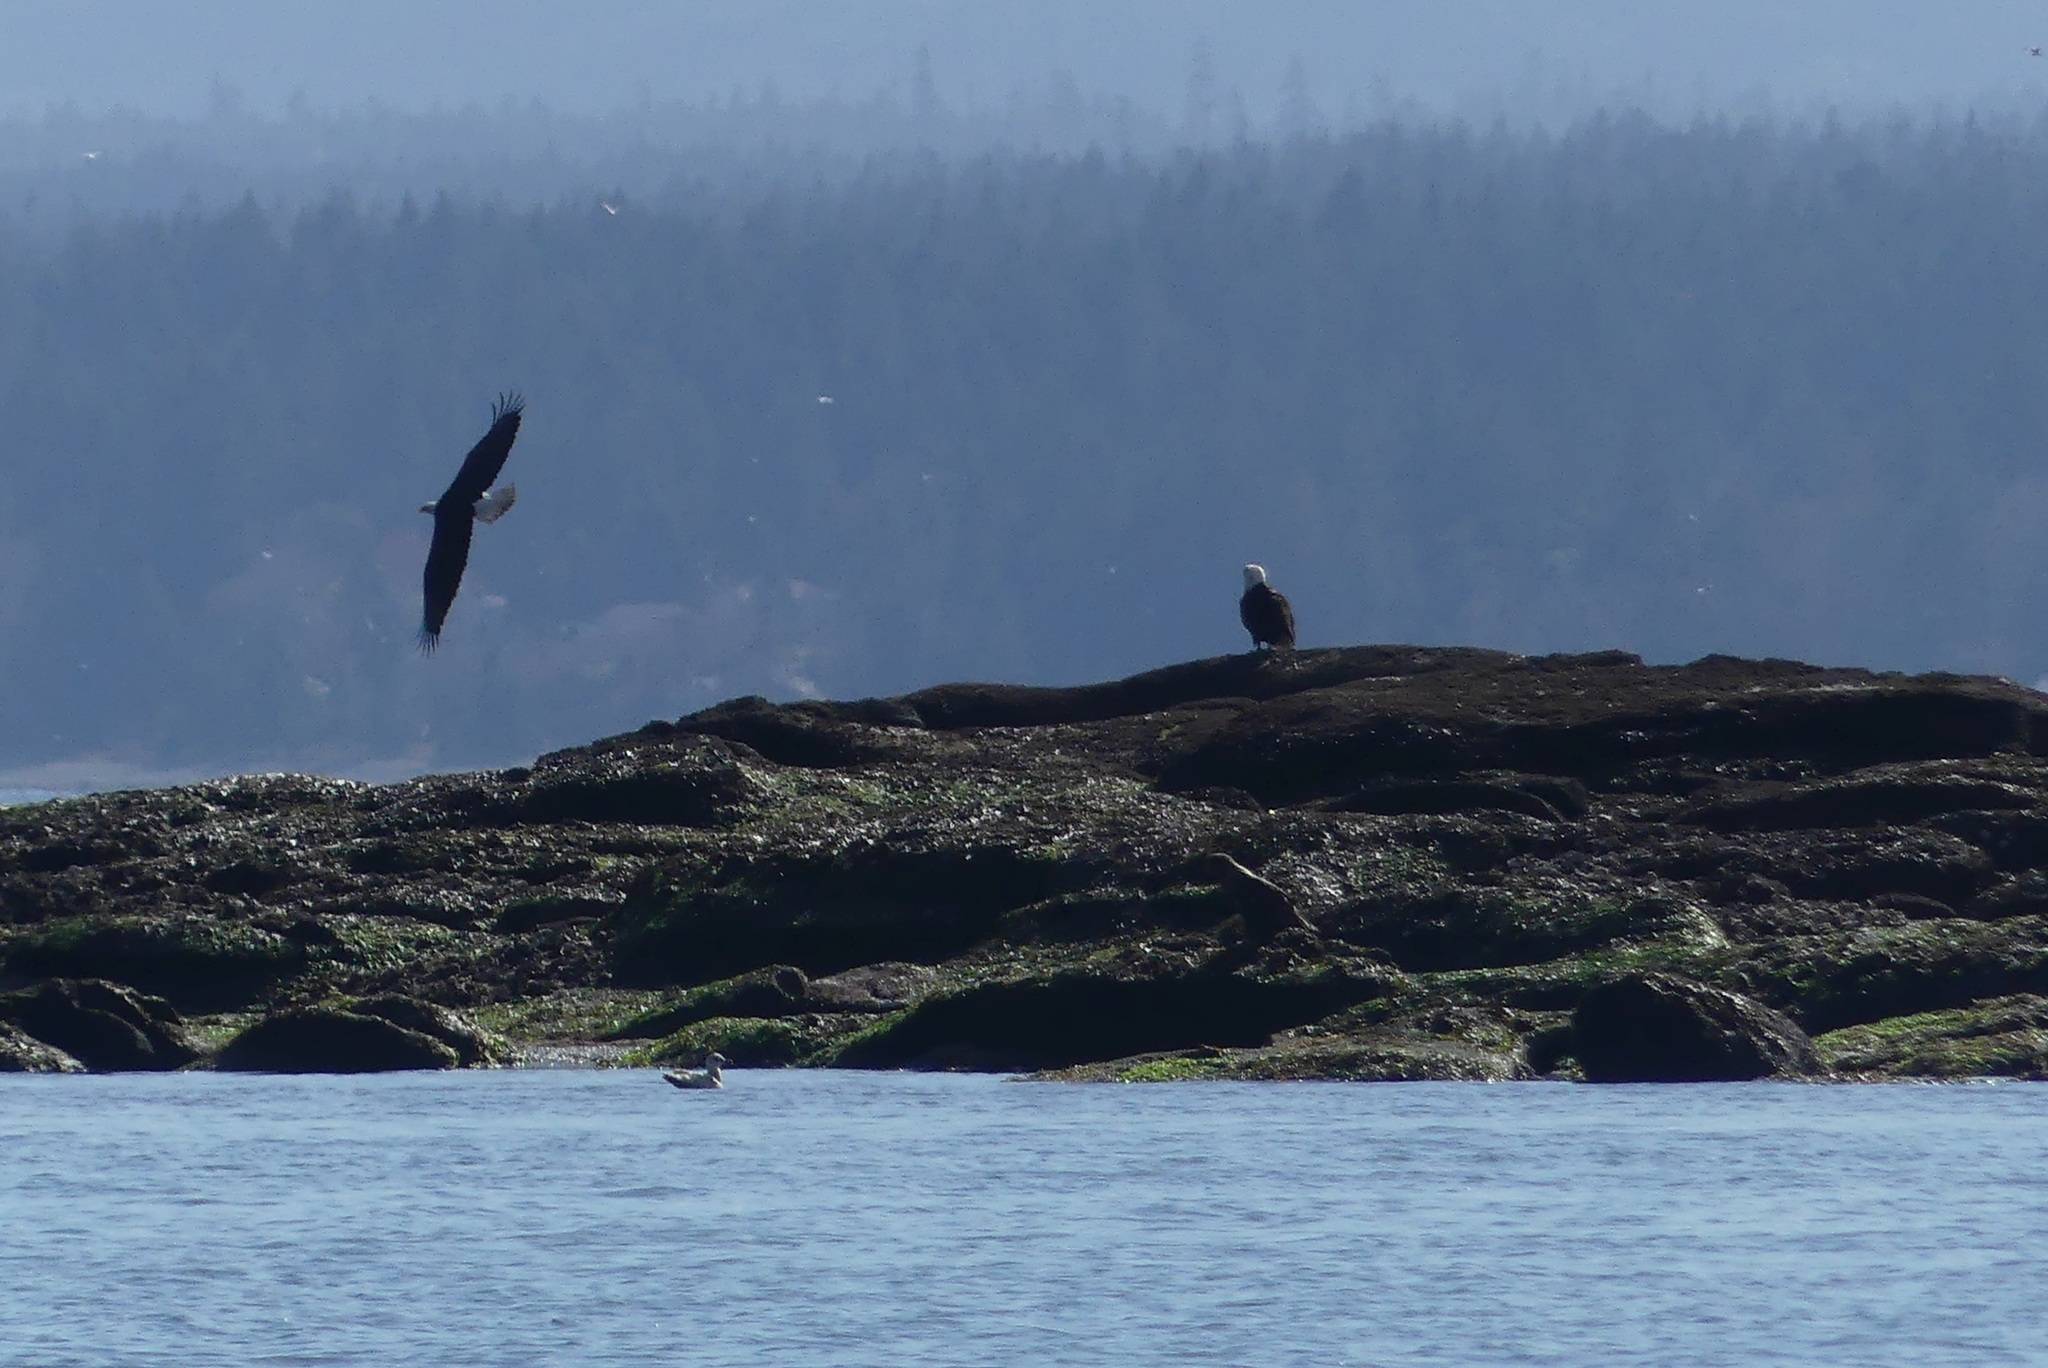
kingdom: Animalia
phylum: Chordata
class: Aves
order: Accipitriformes
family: Accipitridae
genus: Haliaeetus
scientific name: Haliaeetus leucocephalus
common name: Bald eagle
